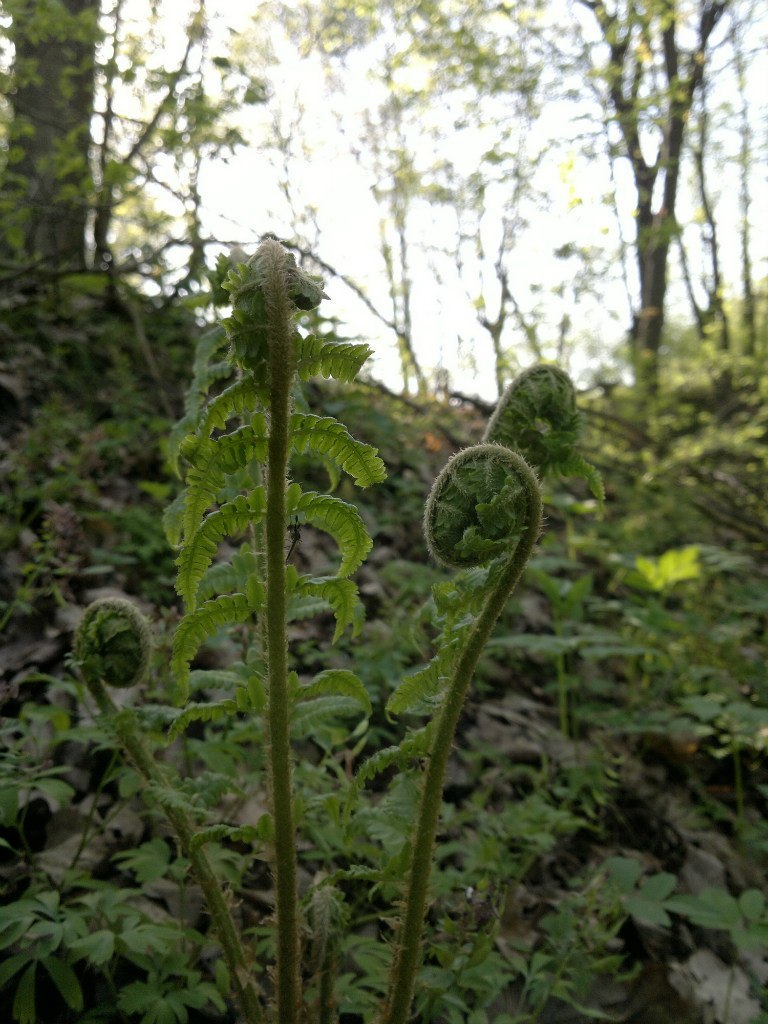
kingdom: Plantae
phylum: Tracheophyta
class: Polypodiopsida
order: Polypodiales
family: Dryopteridaceae
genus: Dryopteris
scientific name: Dryopteris filix-mas
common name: Male fern
